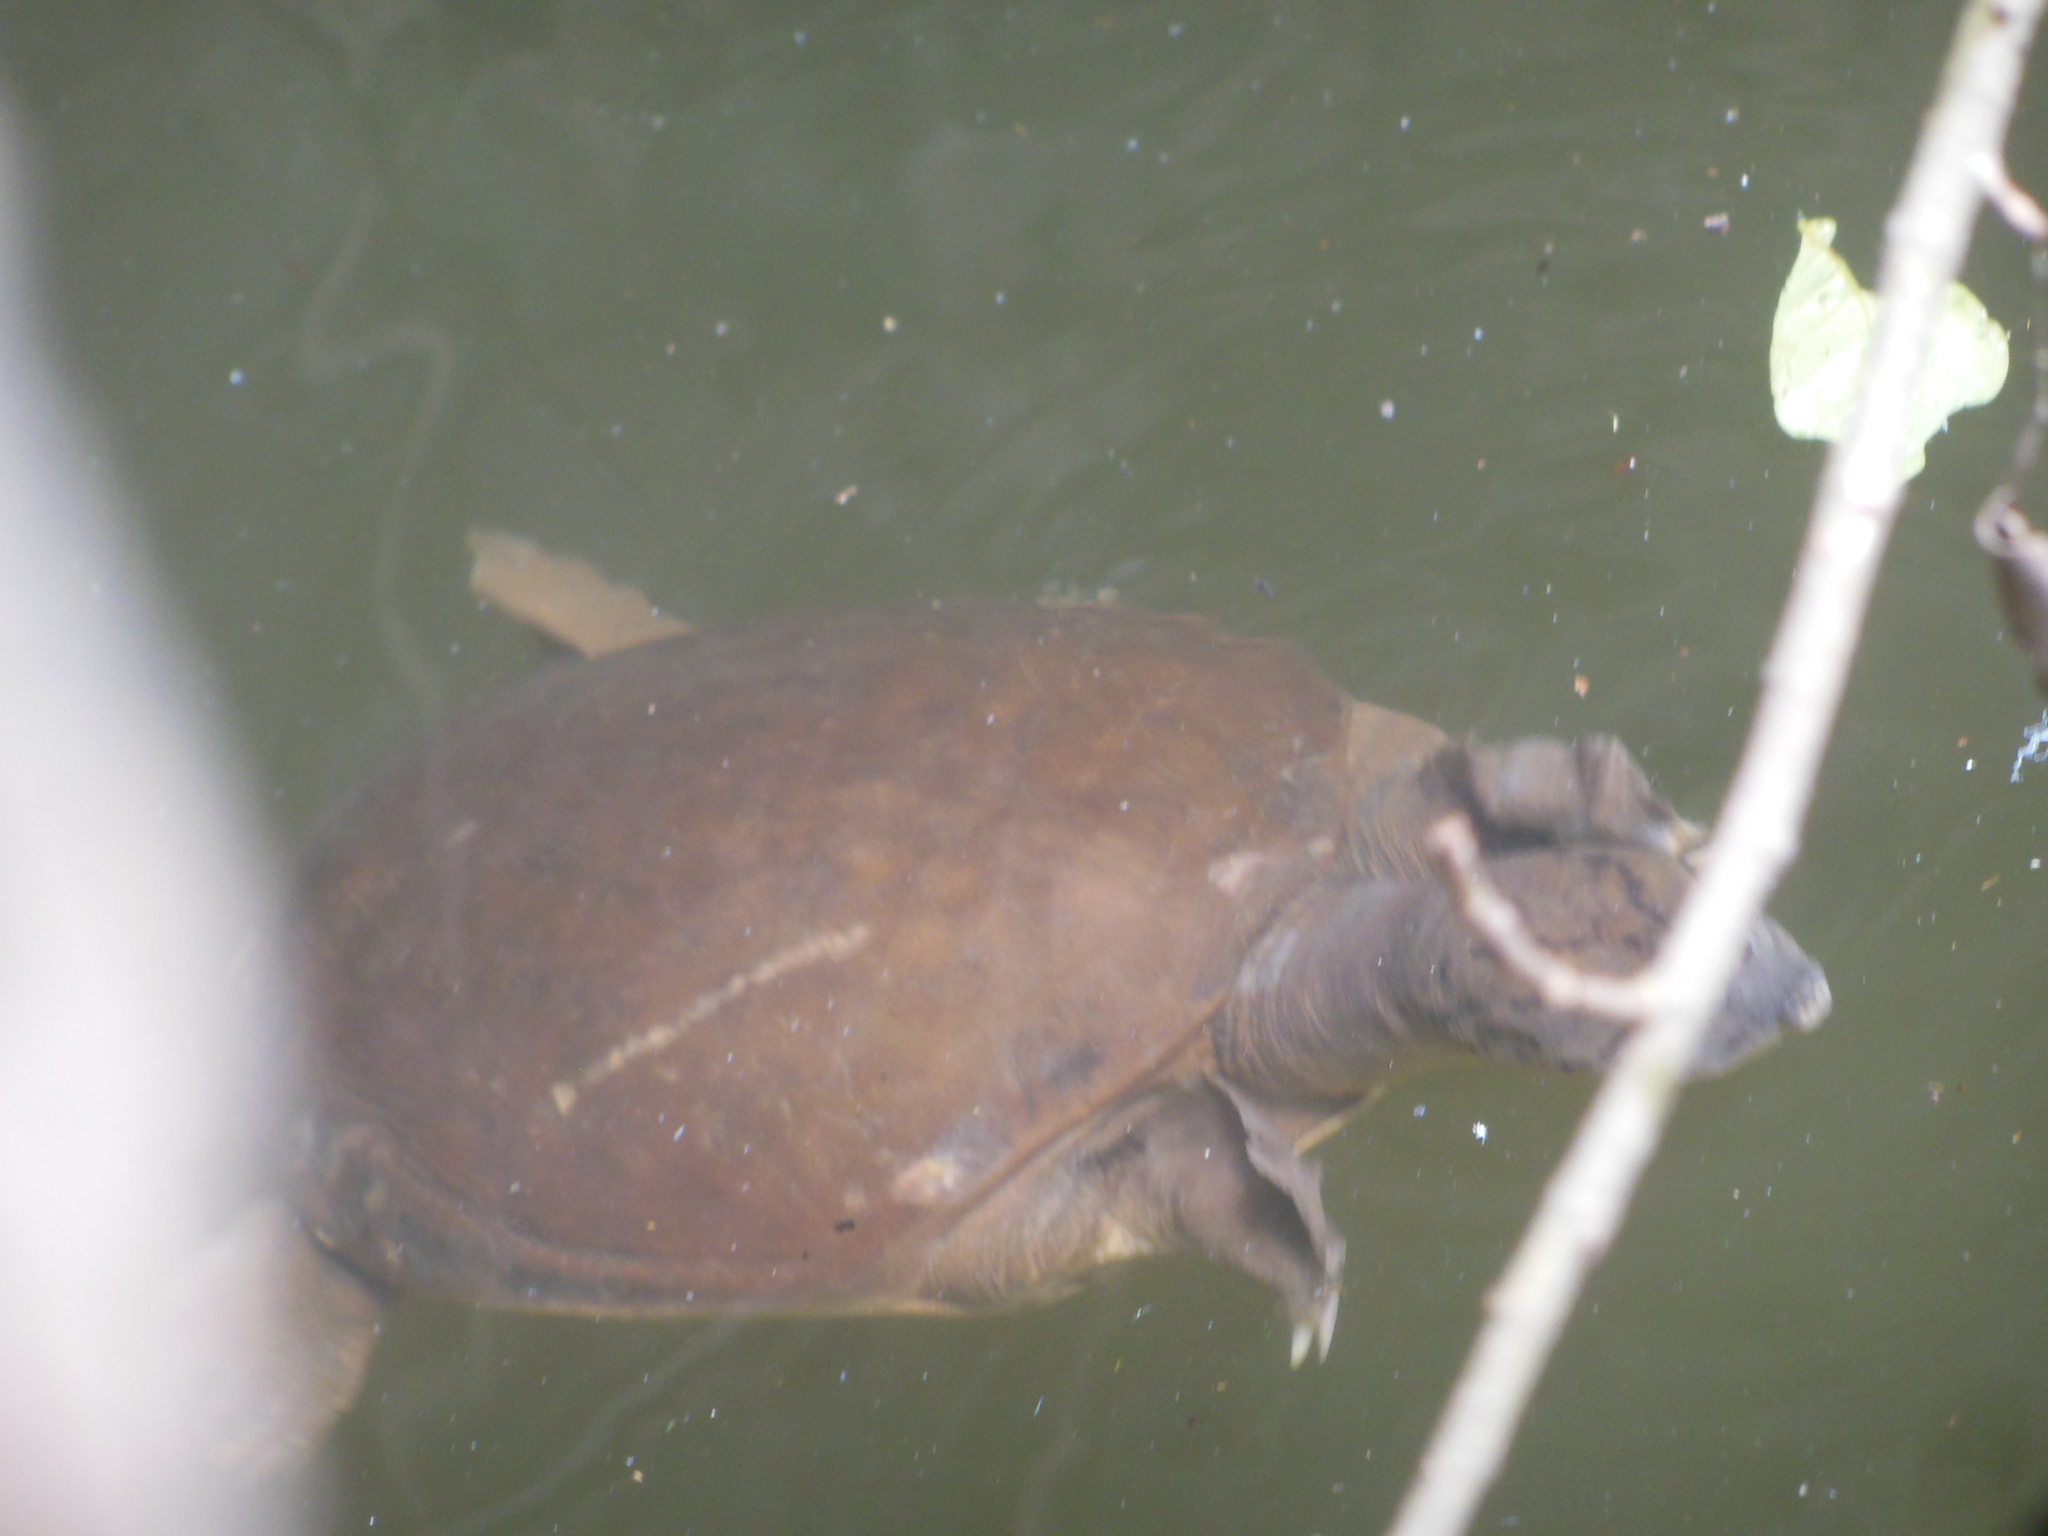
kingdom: Animalia
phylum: Chordata
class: Testudines
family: Trionychidae
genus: Lissemys
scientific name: Lissemys punctata
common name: Indian flap-shelled turtle
